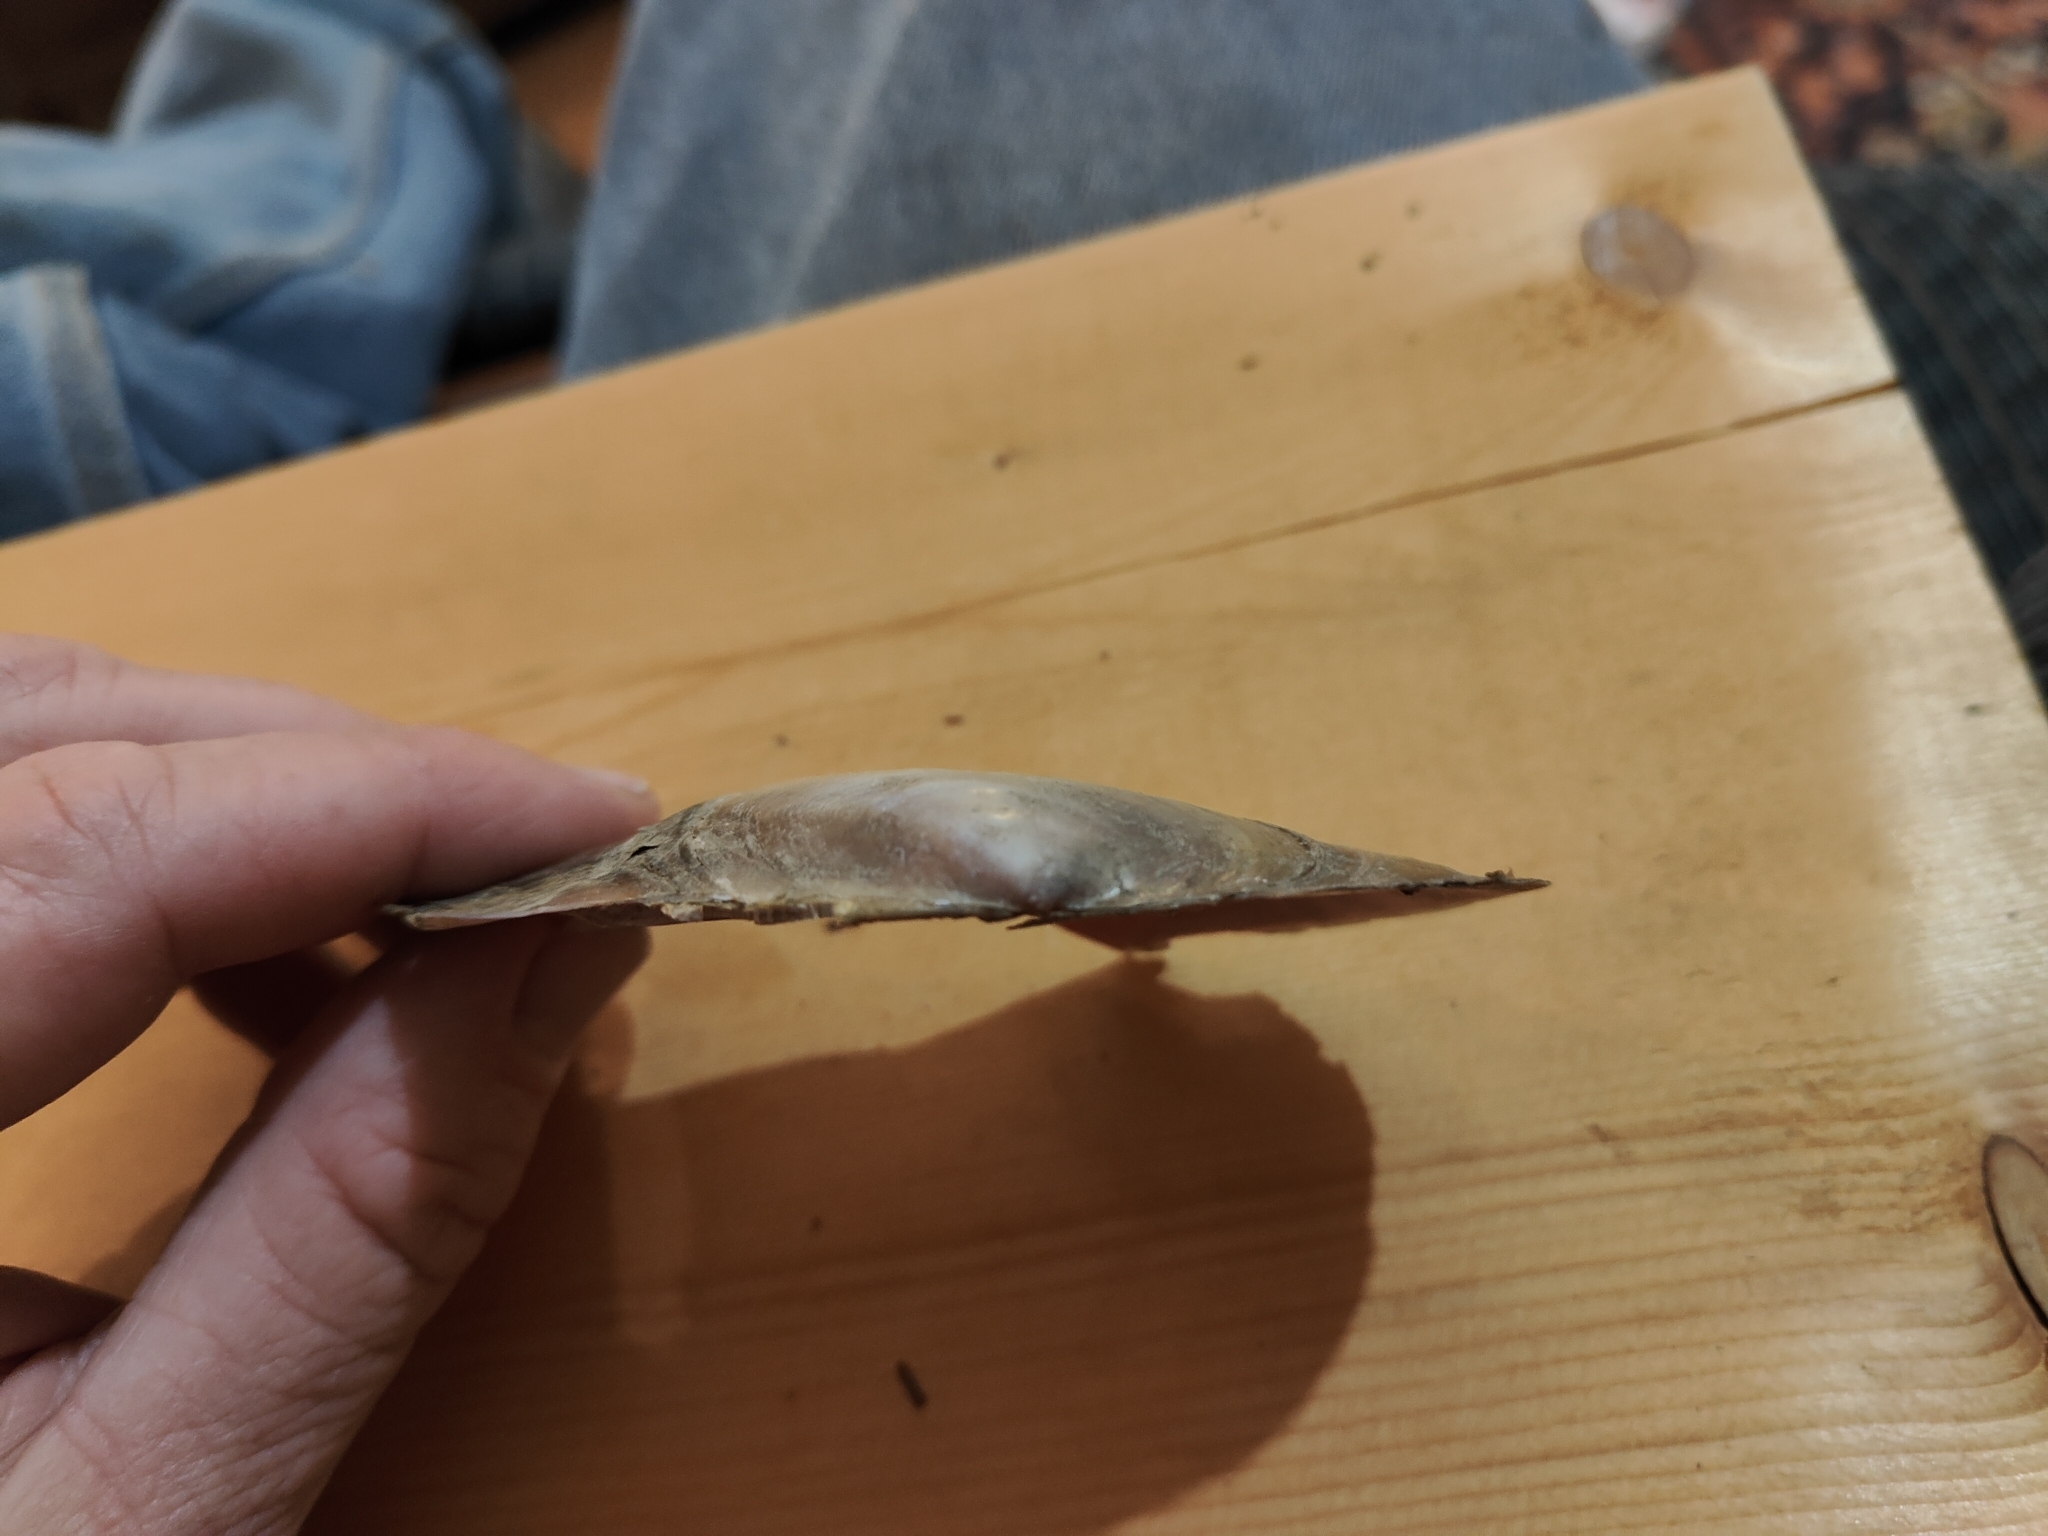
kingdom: Animalia
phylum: Mollusca
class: Bivalvia
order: Unionida
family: Unionidae
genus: Potamilus
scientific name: Potamilus ohiensis
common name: Pink papershell
